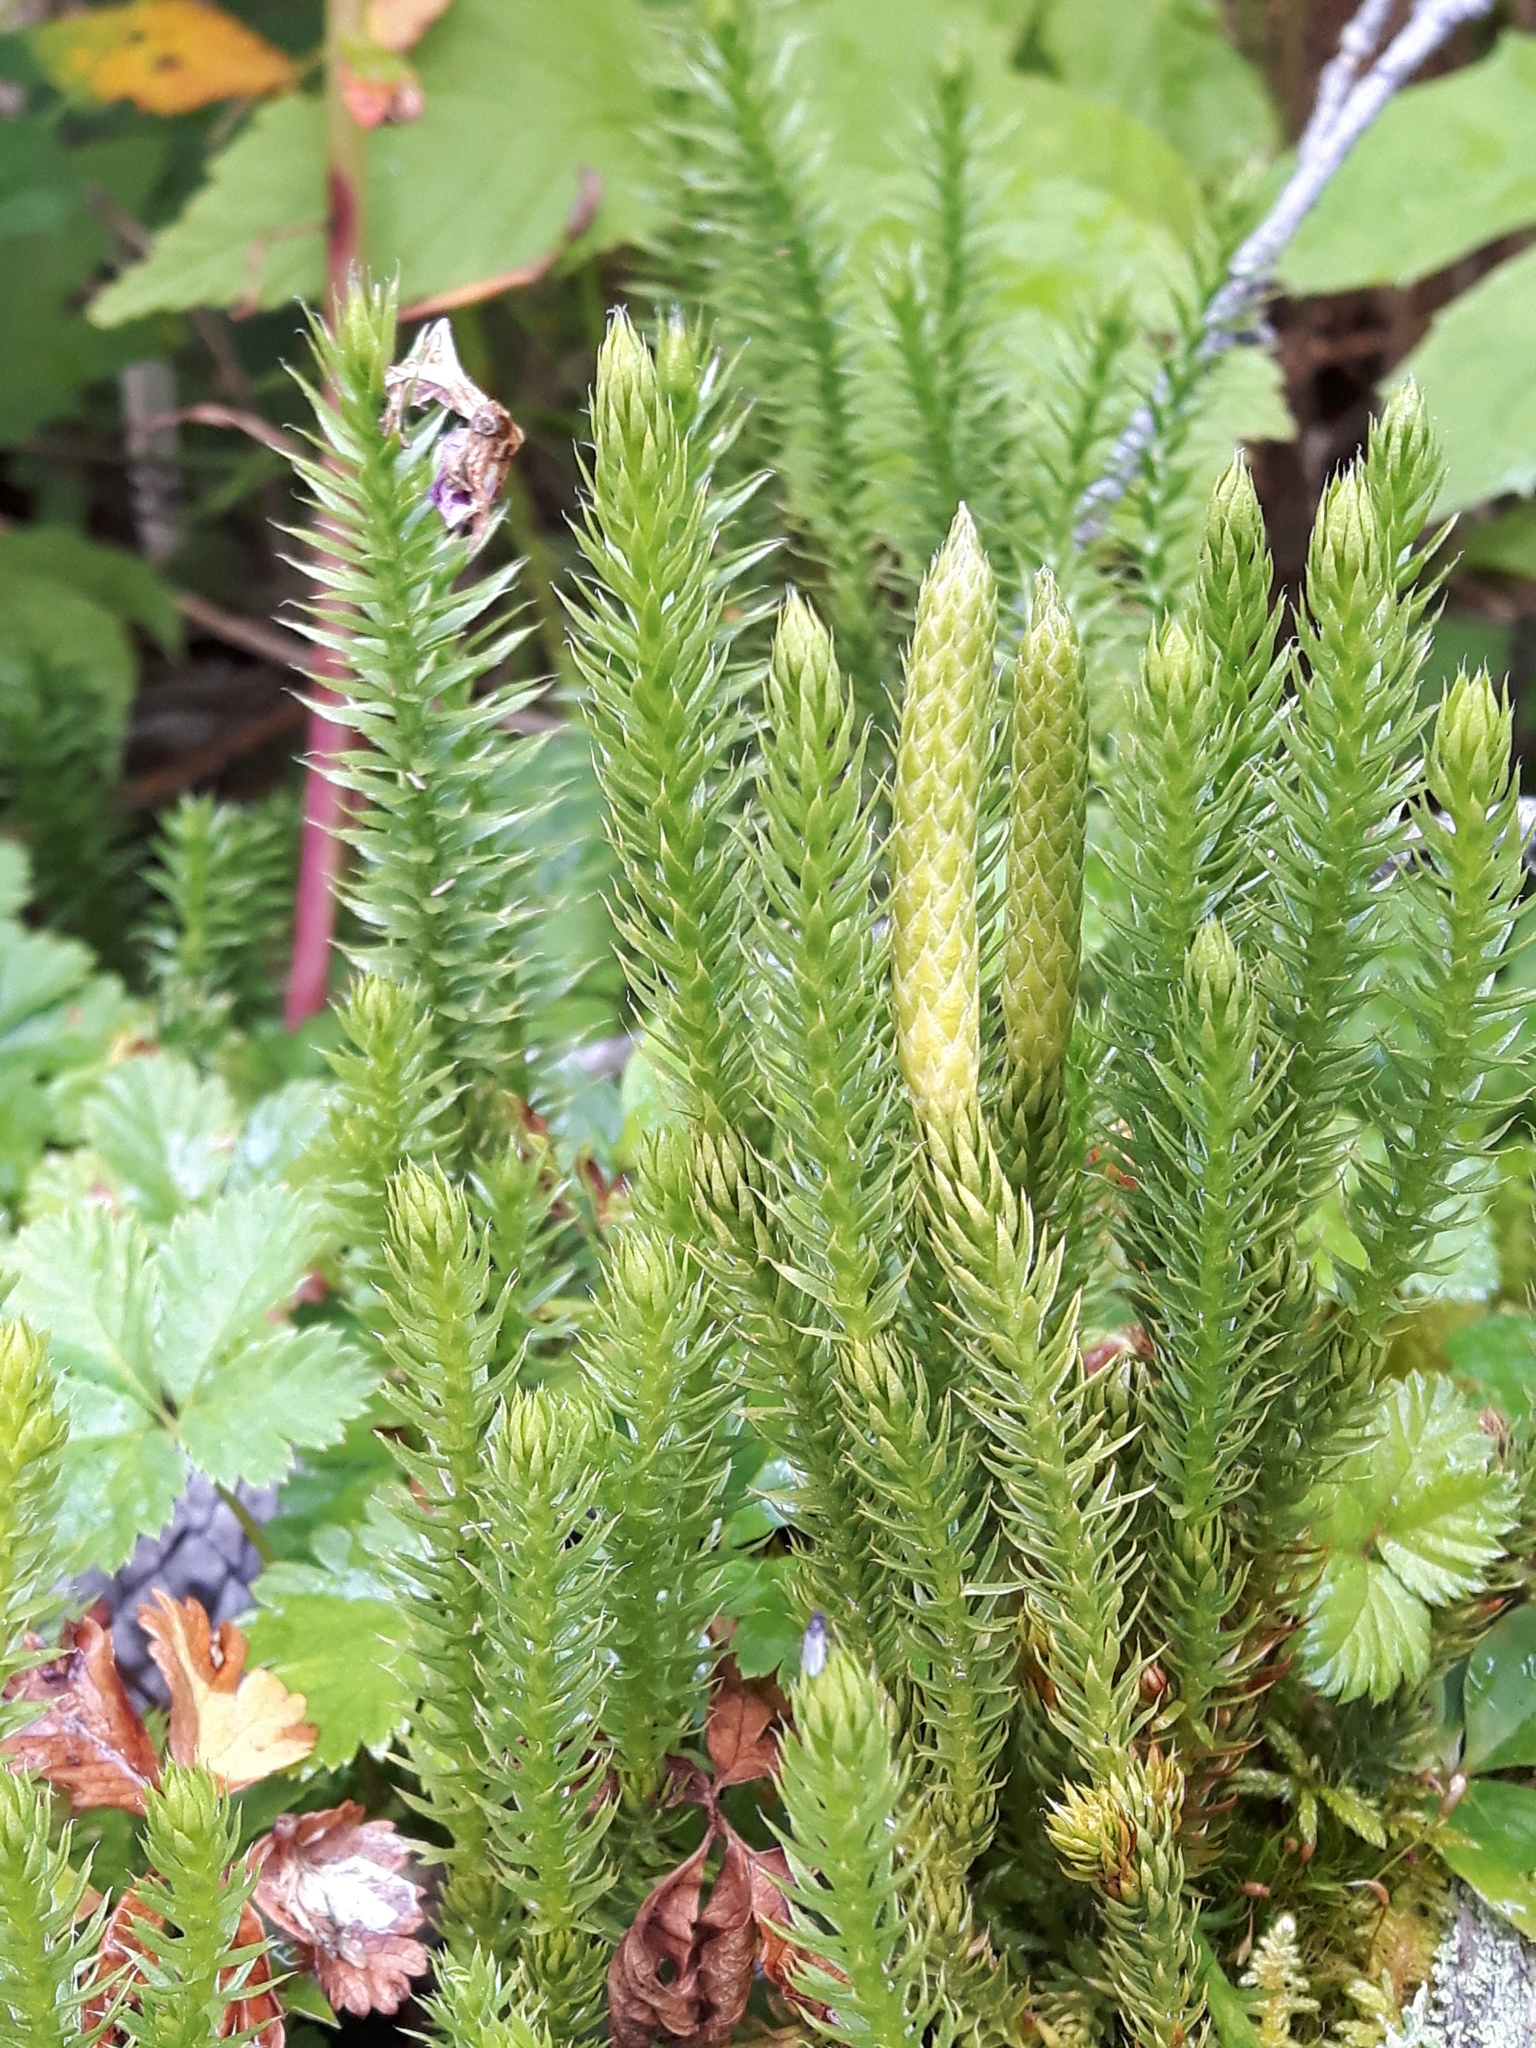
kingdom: Plantae
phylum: Tracheophyta
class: Lycopodiopsida
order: Lycopodiales
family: Lycopodiaceae
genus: Spinulum
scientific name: Spinulum annotinum
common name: Interrupted club-moss
